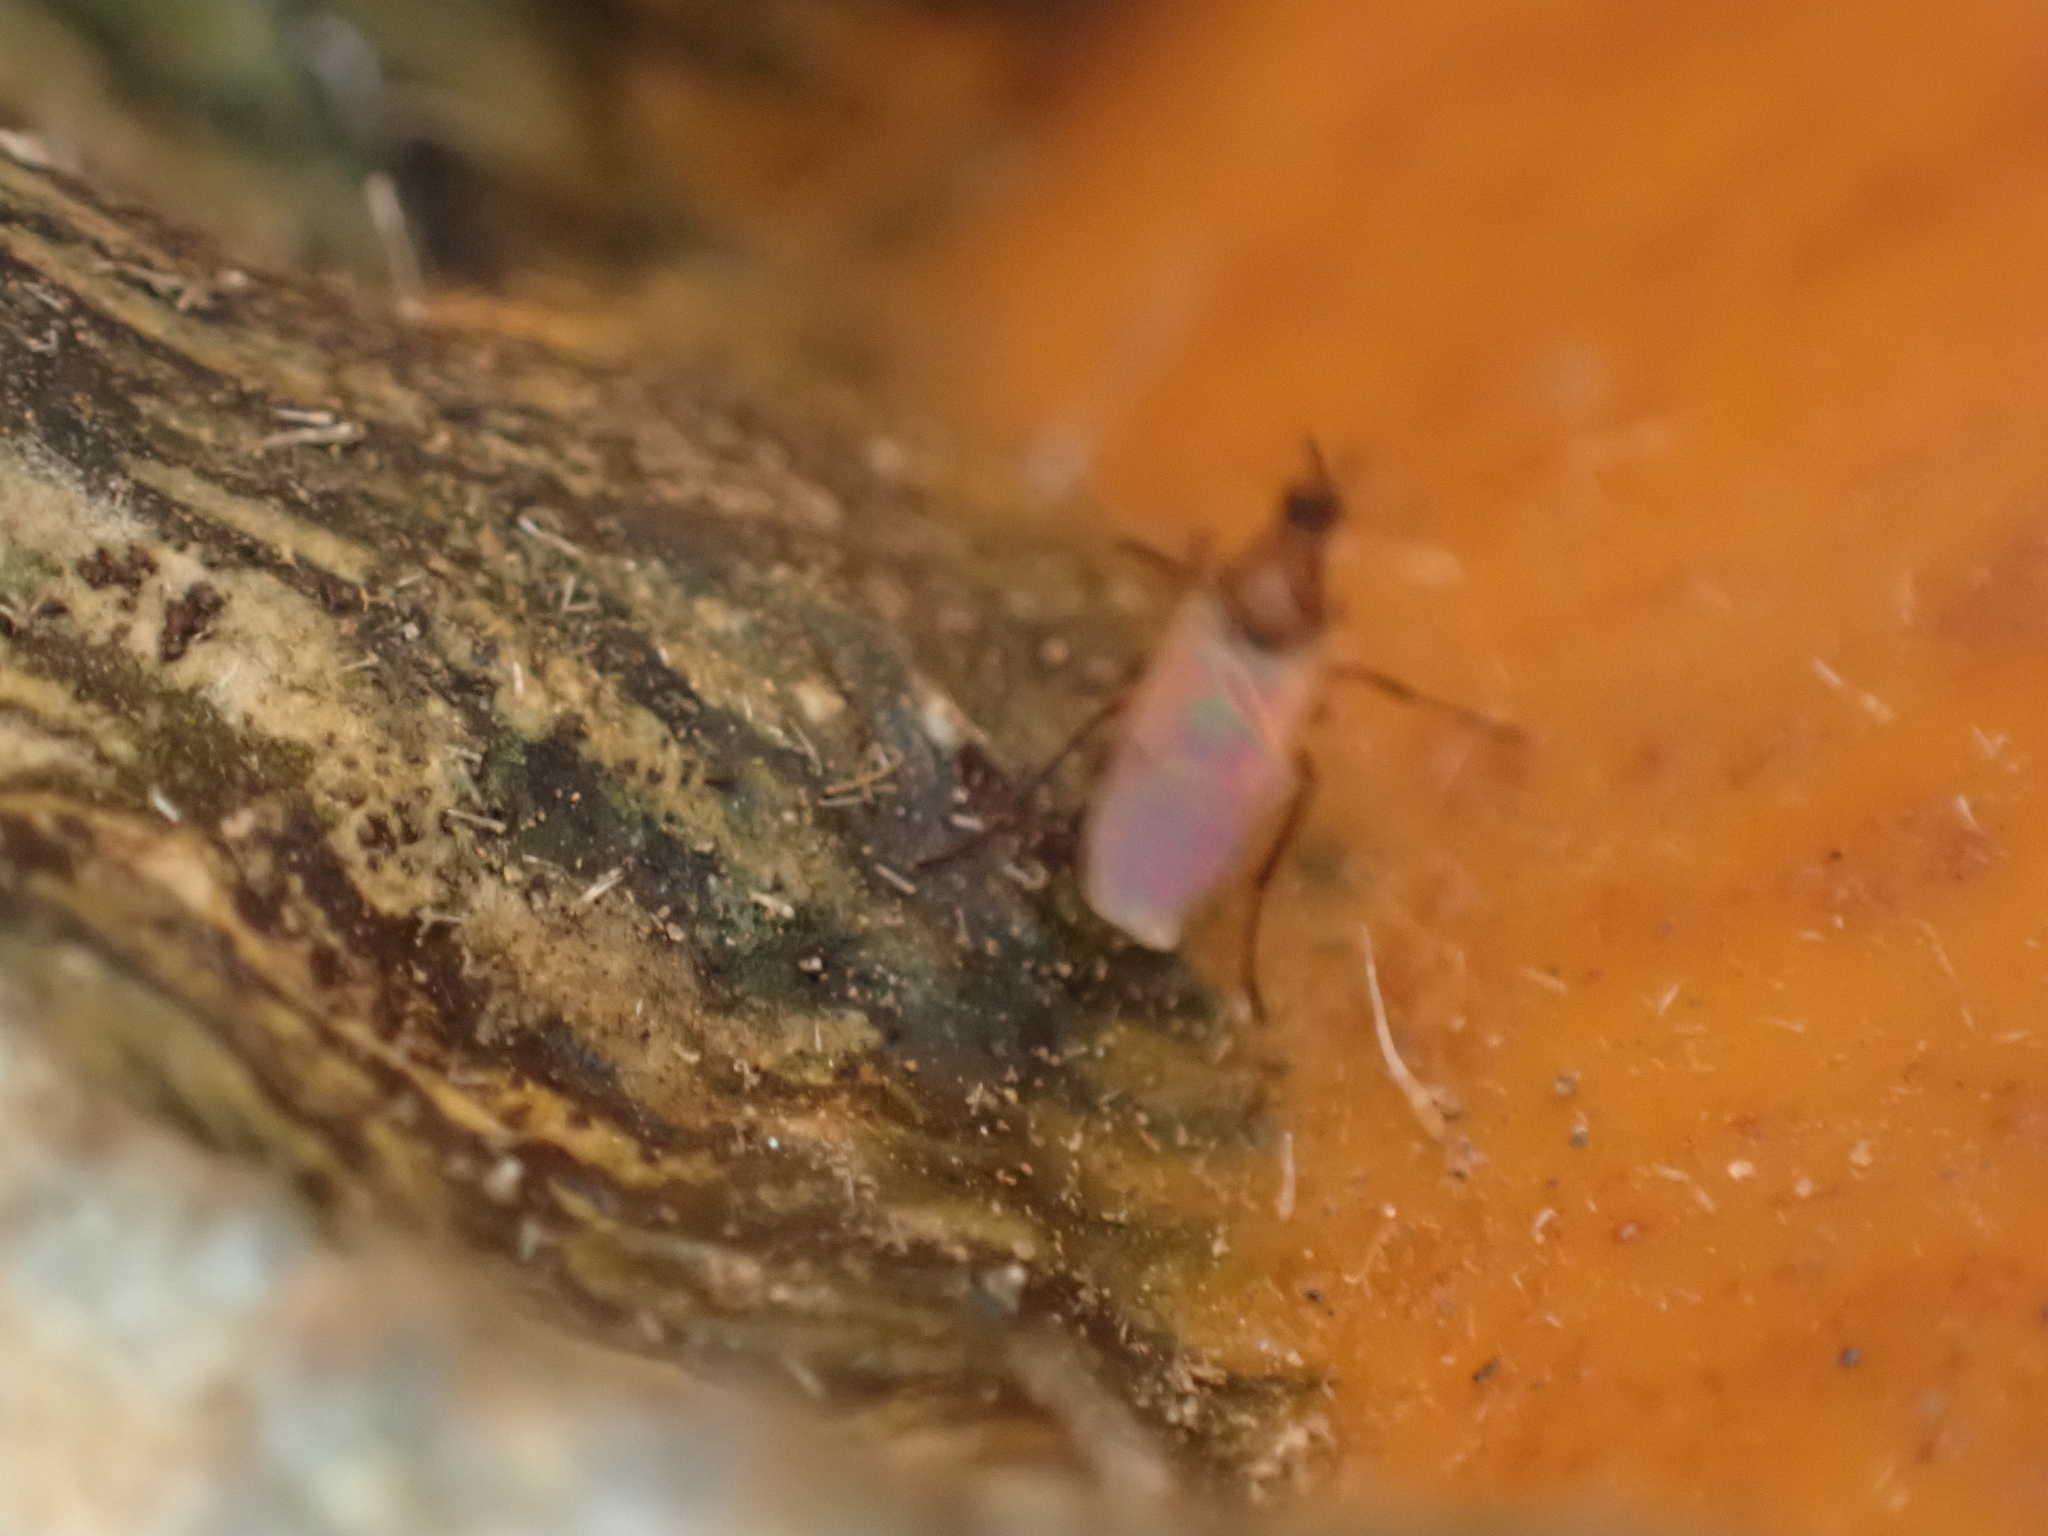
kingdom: Animalia
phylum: Arthropoda
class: Insecta
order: Diptera
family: Bibionidae
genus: Dilophus
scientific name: Dilophus
